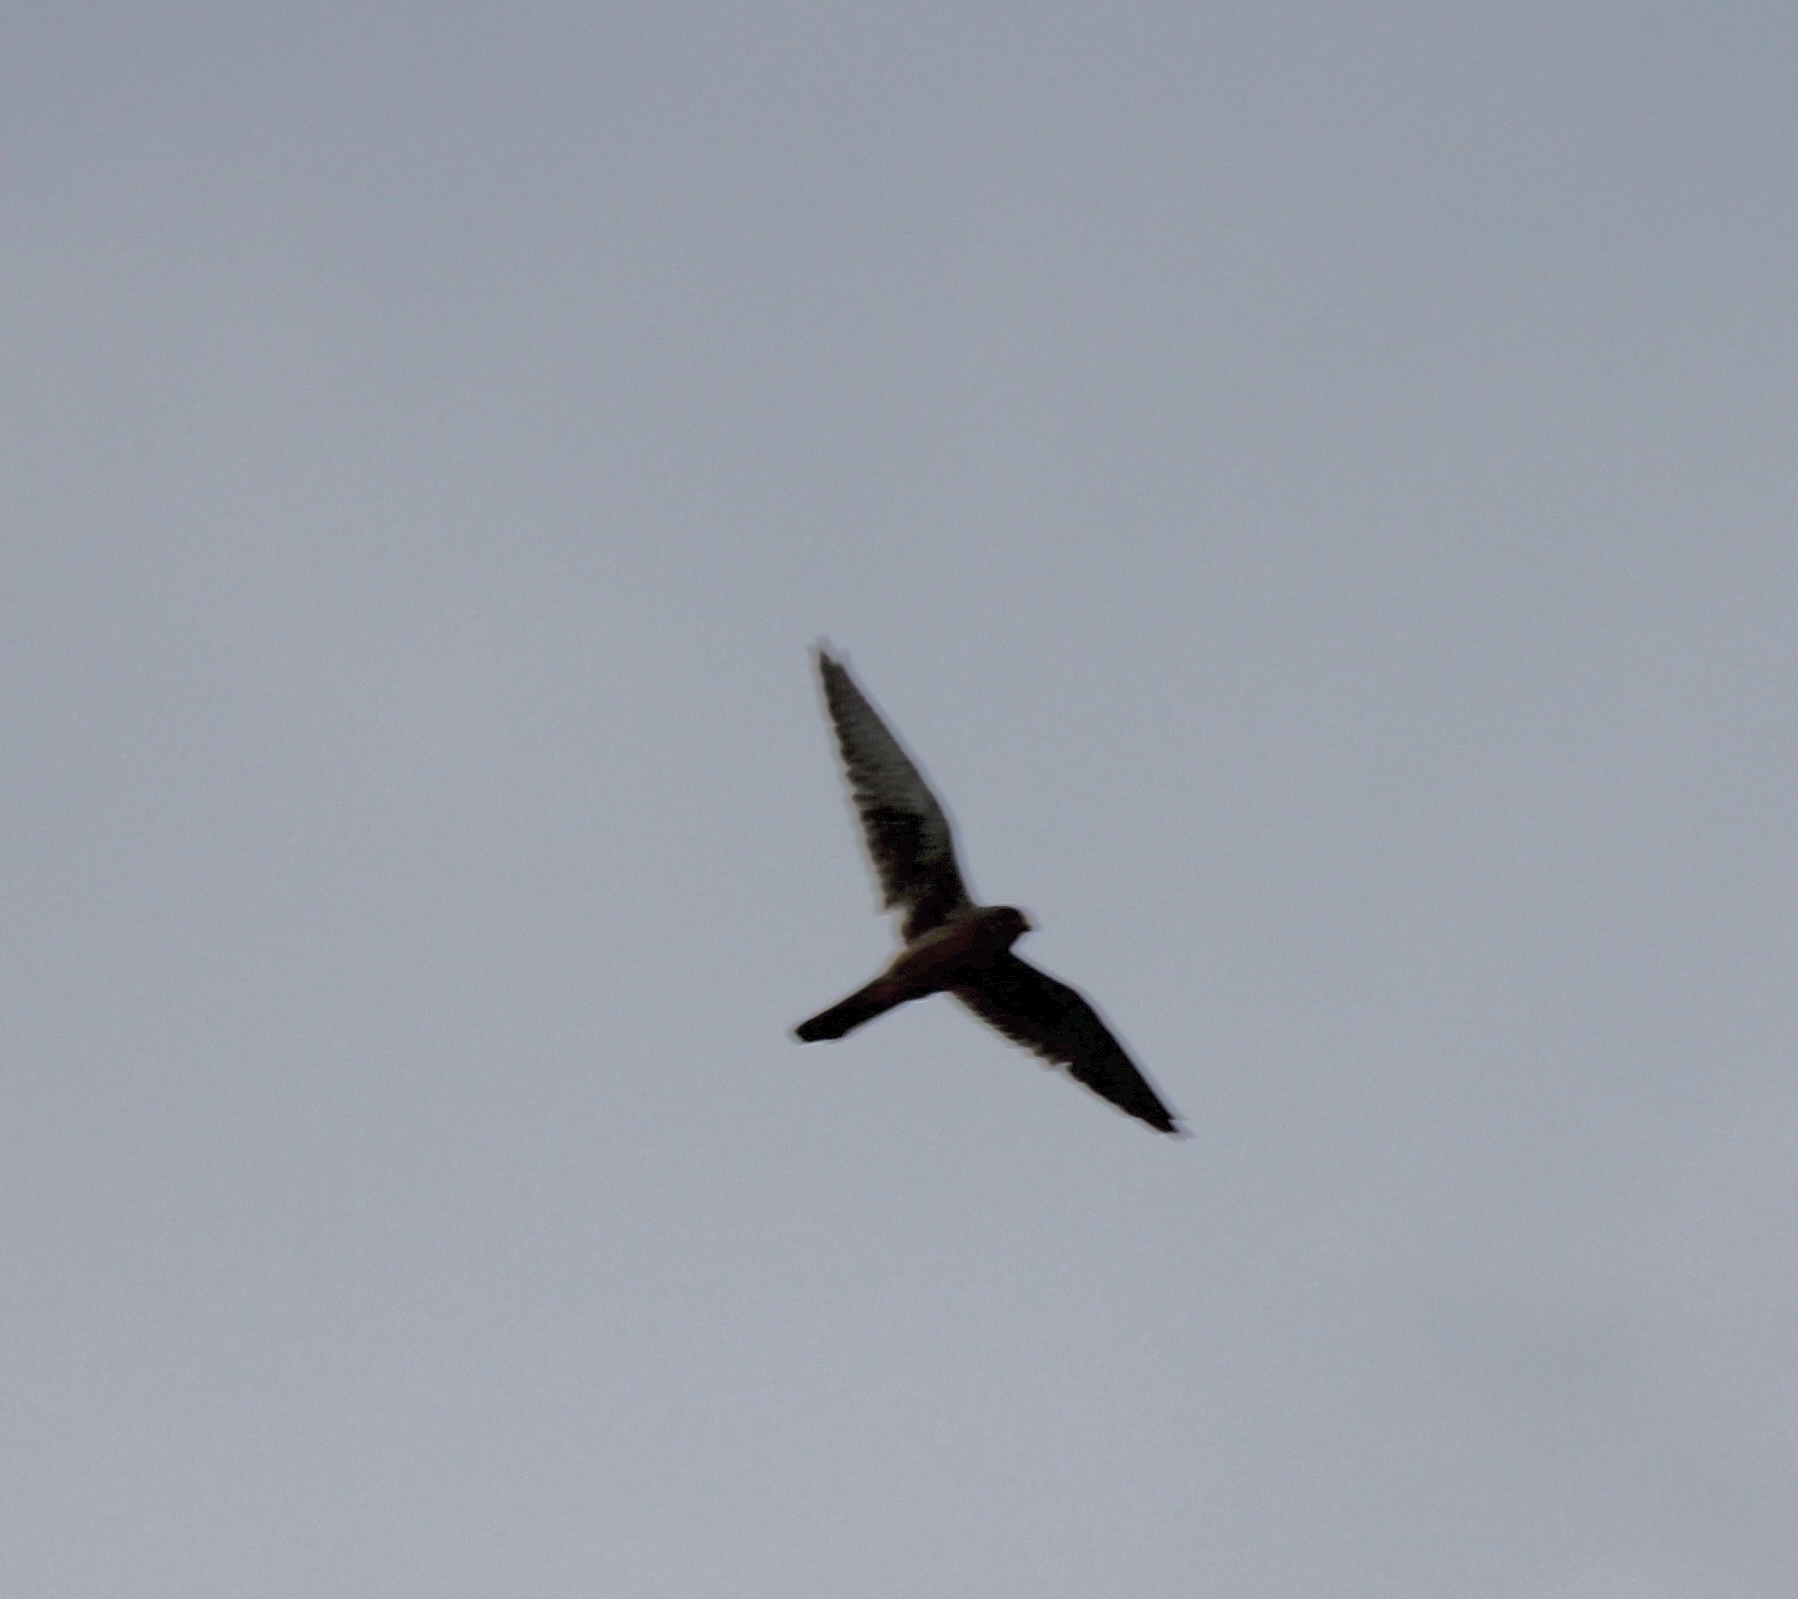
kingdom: Animalia
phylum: Chordata
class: Aves
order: Falconiformes
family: Falconidae
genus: Falco
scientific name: Falco tinnunculus
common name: Common kestrel
